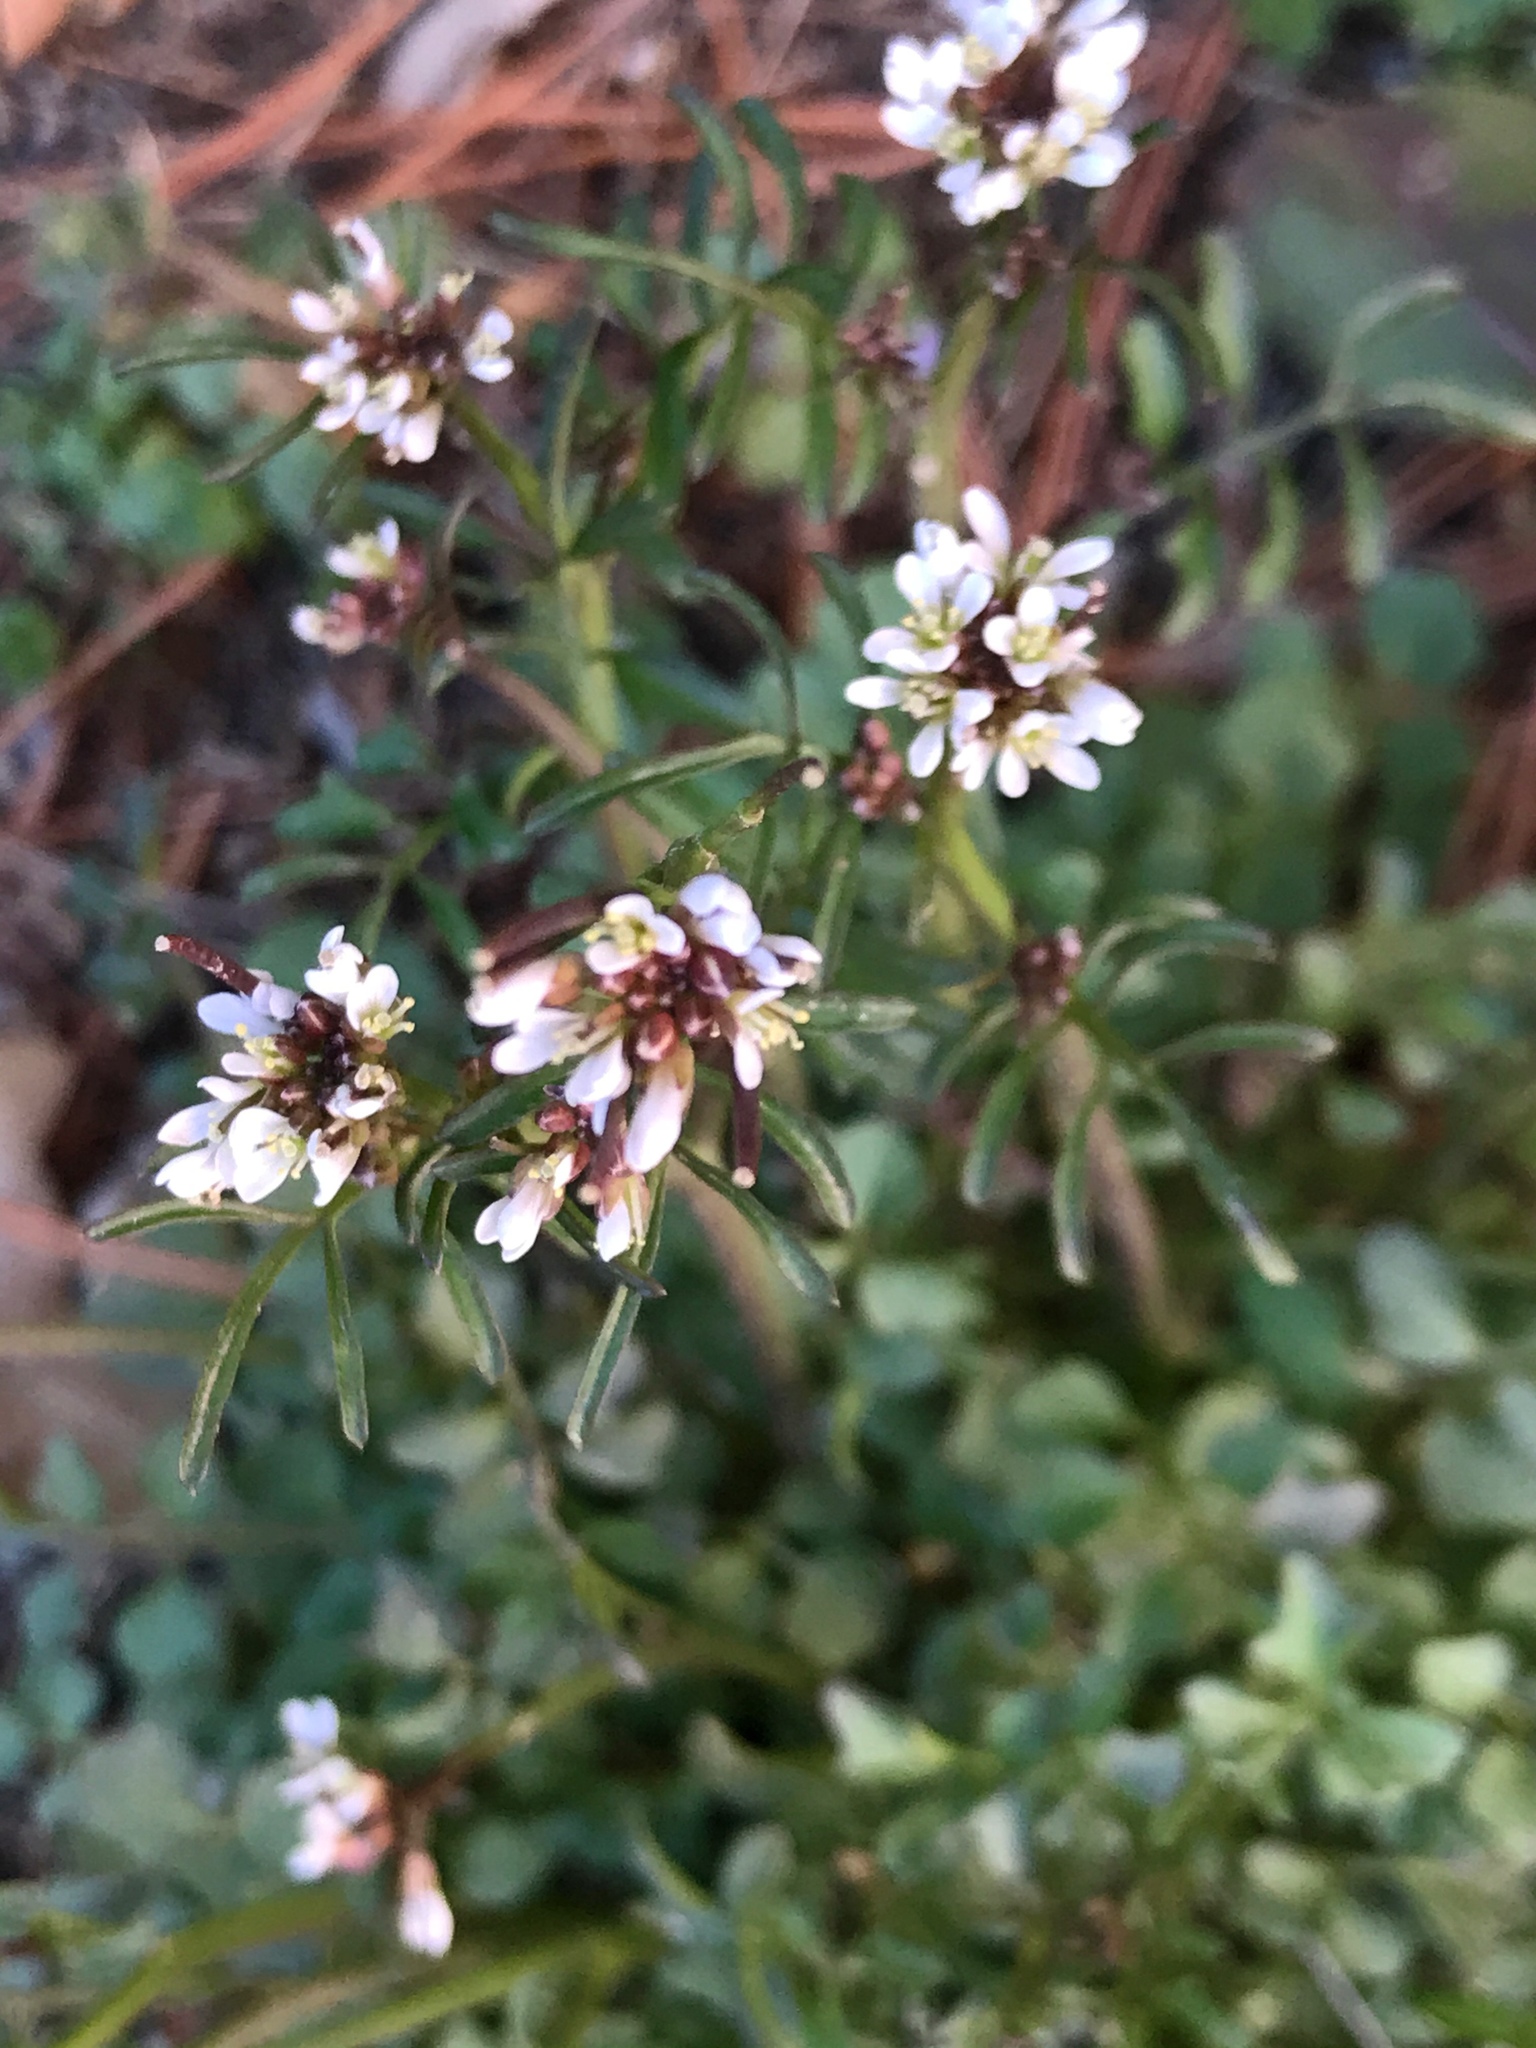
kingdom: Plantae
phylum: Tracheophyta
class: Magnoliopsida
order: Brassicales
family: Brassicaceae
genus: Cardamine
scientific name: Cardamine hirsuta
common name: Hairy bittercress
